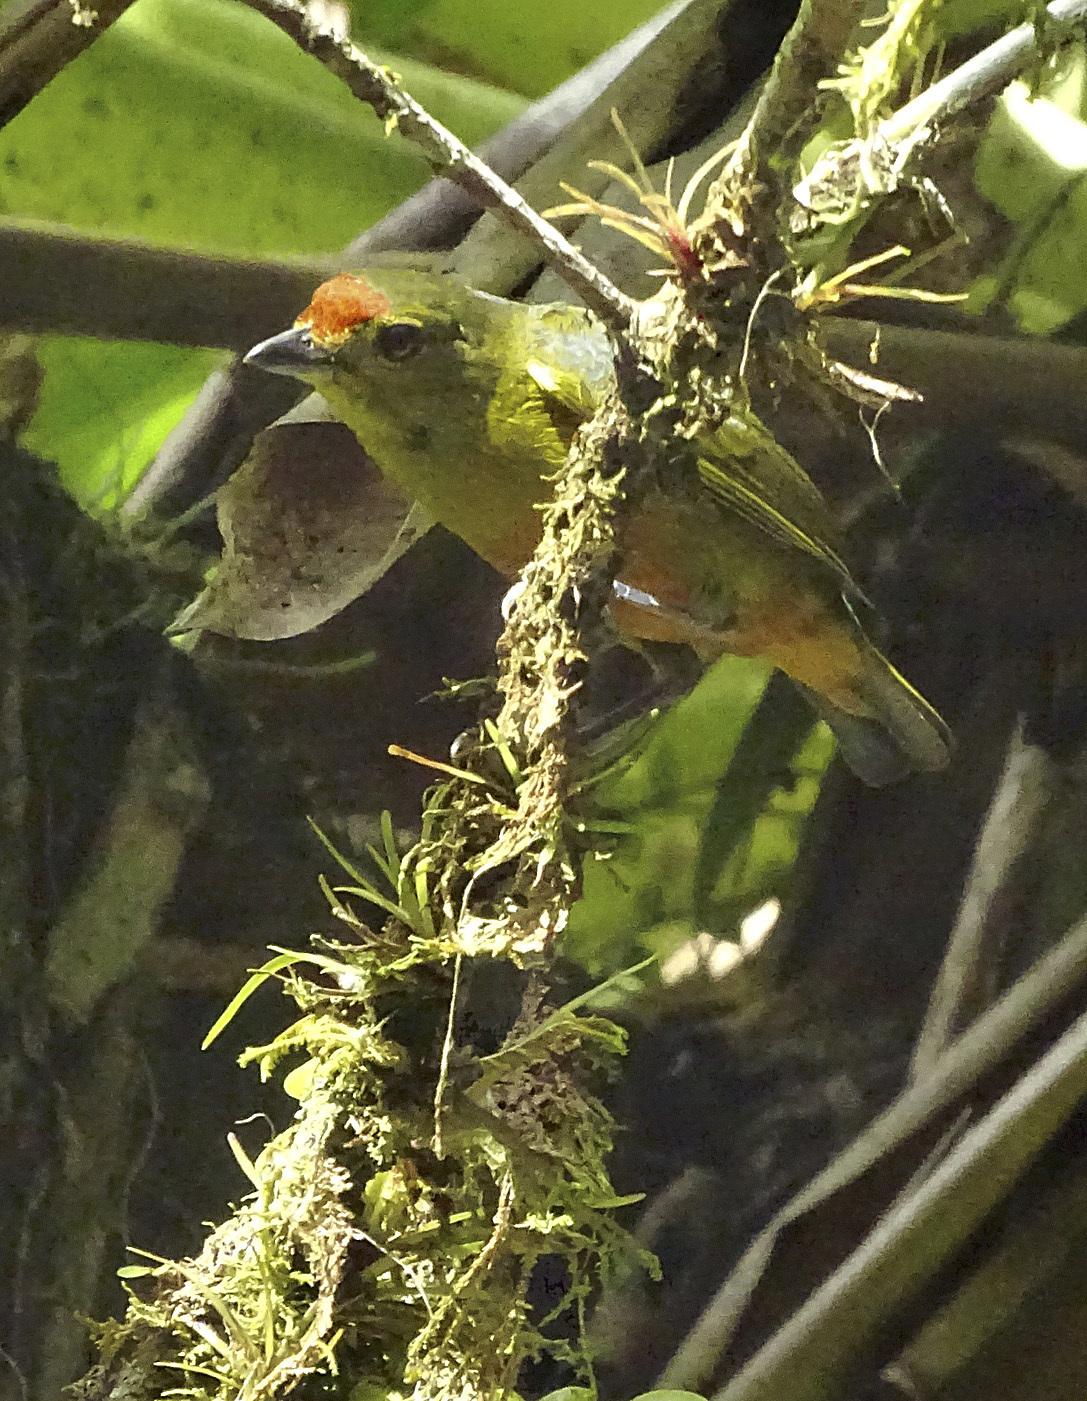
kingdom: Animalia
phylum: Chordata
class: Aves
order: Passeriformes
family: Fringillidae
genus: Euphonia
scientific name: Euphonia imitans
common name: Spot-crowned euphonia
